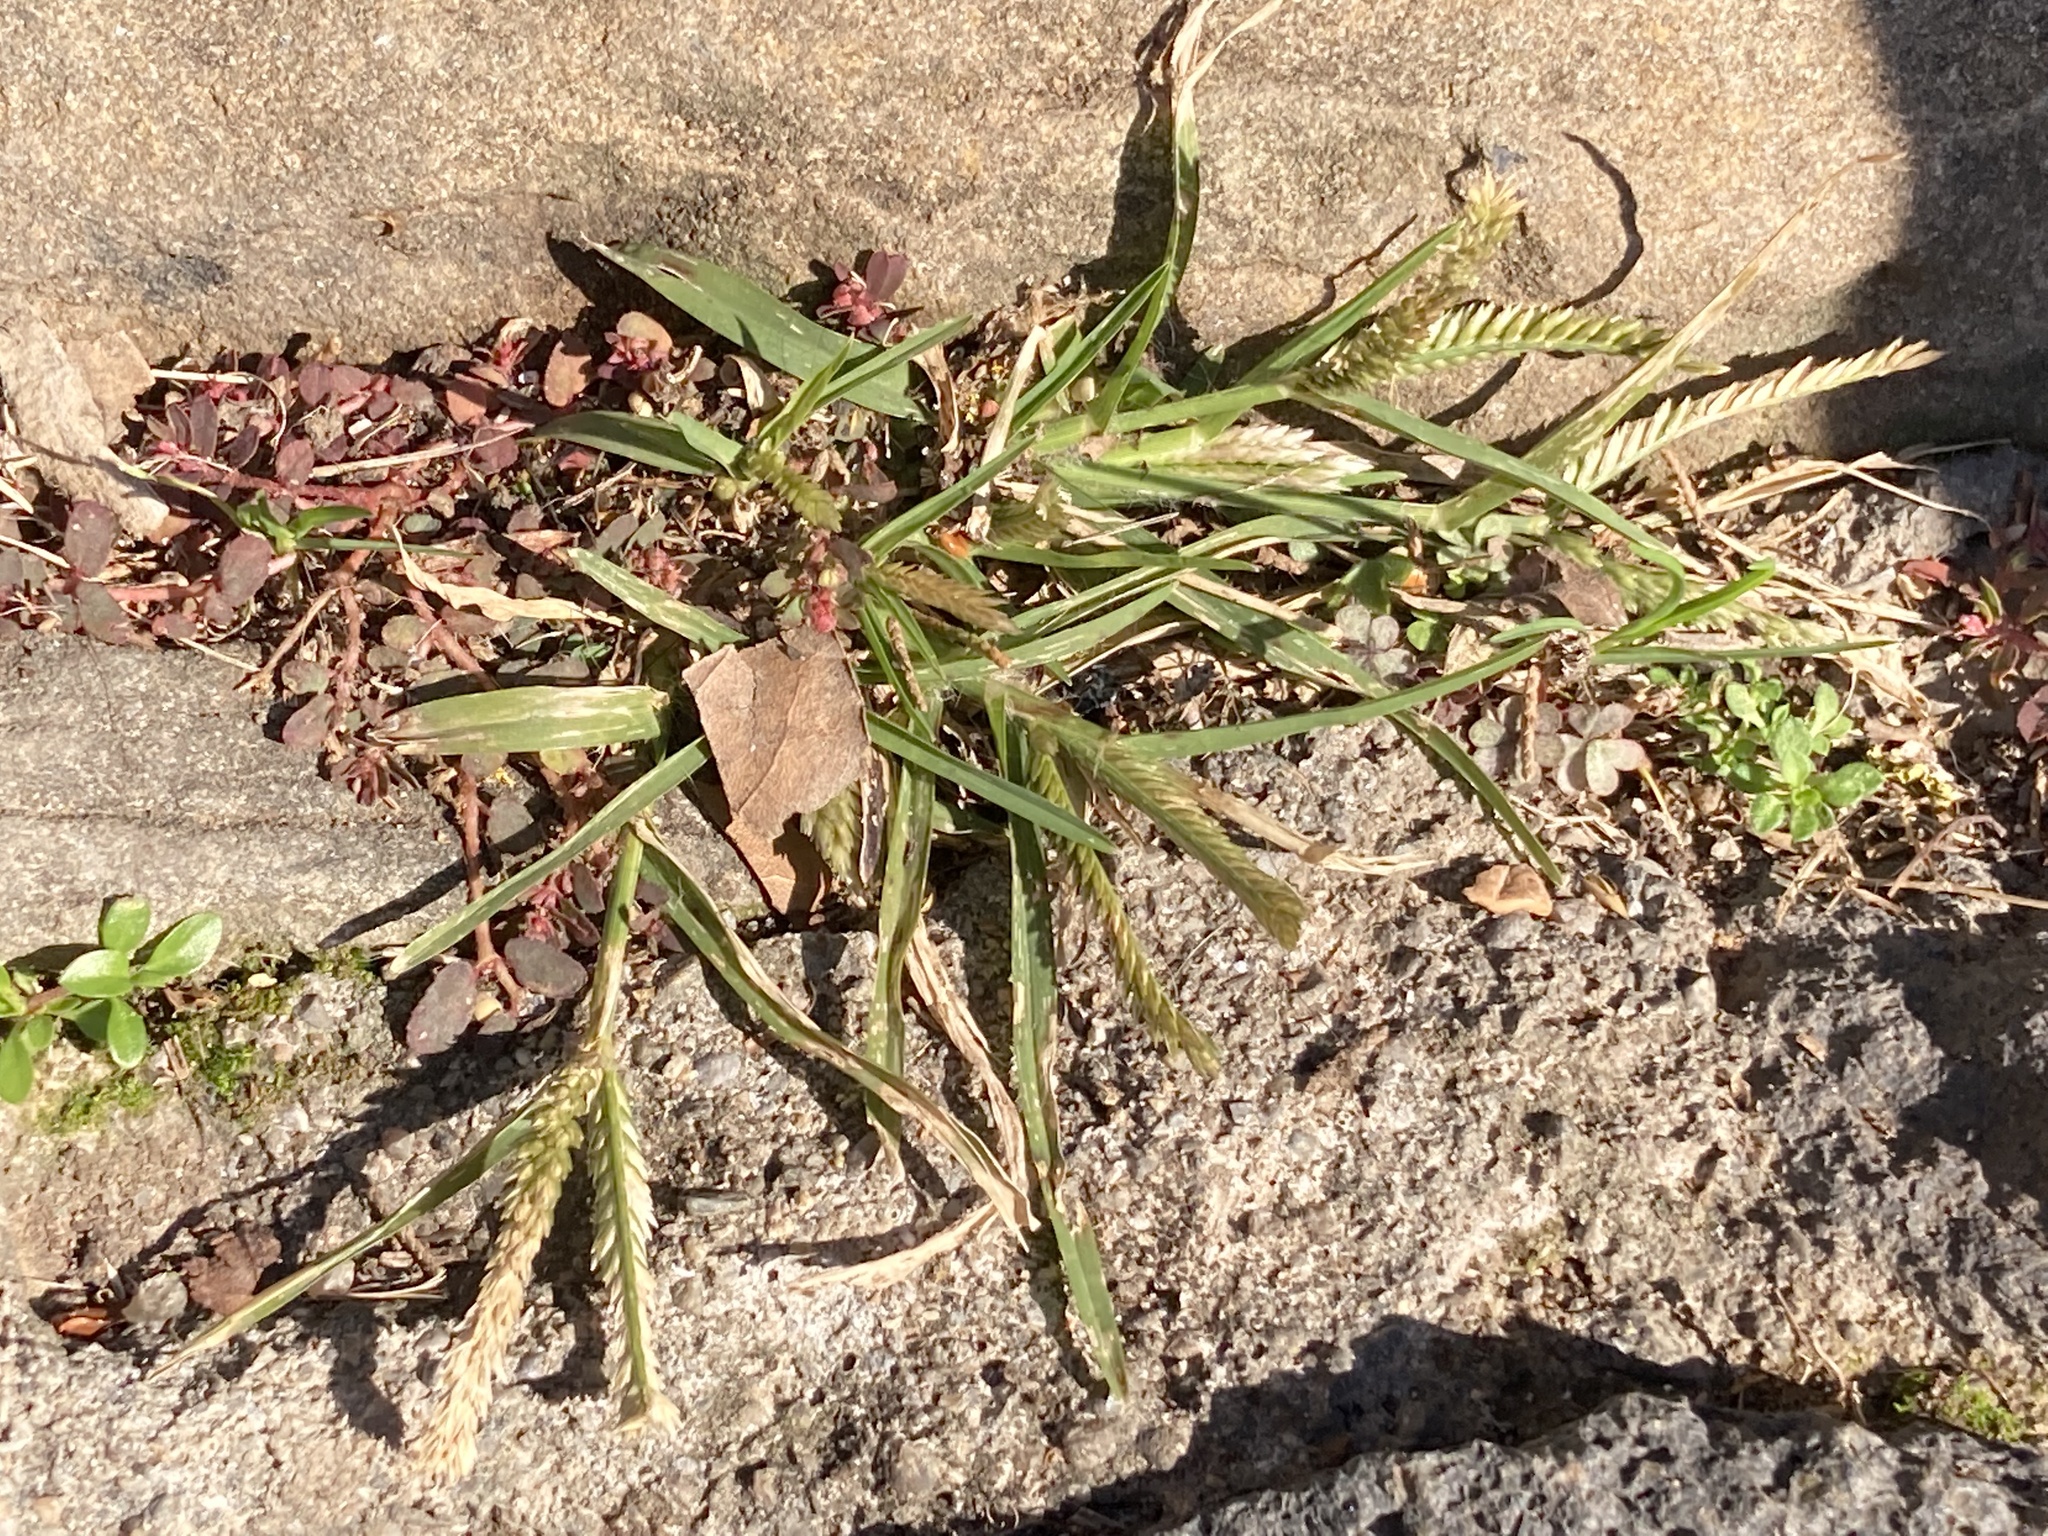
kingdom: Plantae
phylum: Tracheophyta
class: Liliopsida
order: Poales
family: Poaceae
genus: Eleusine
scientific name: Eleusine indica
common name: Yard-grass
